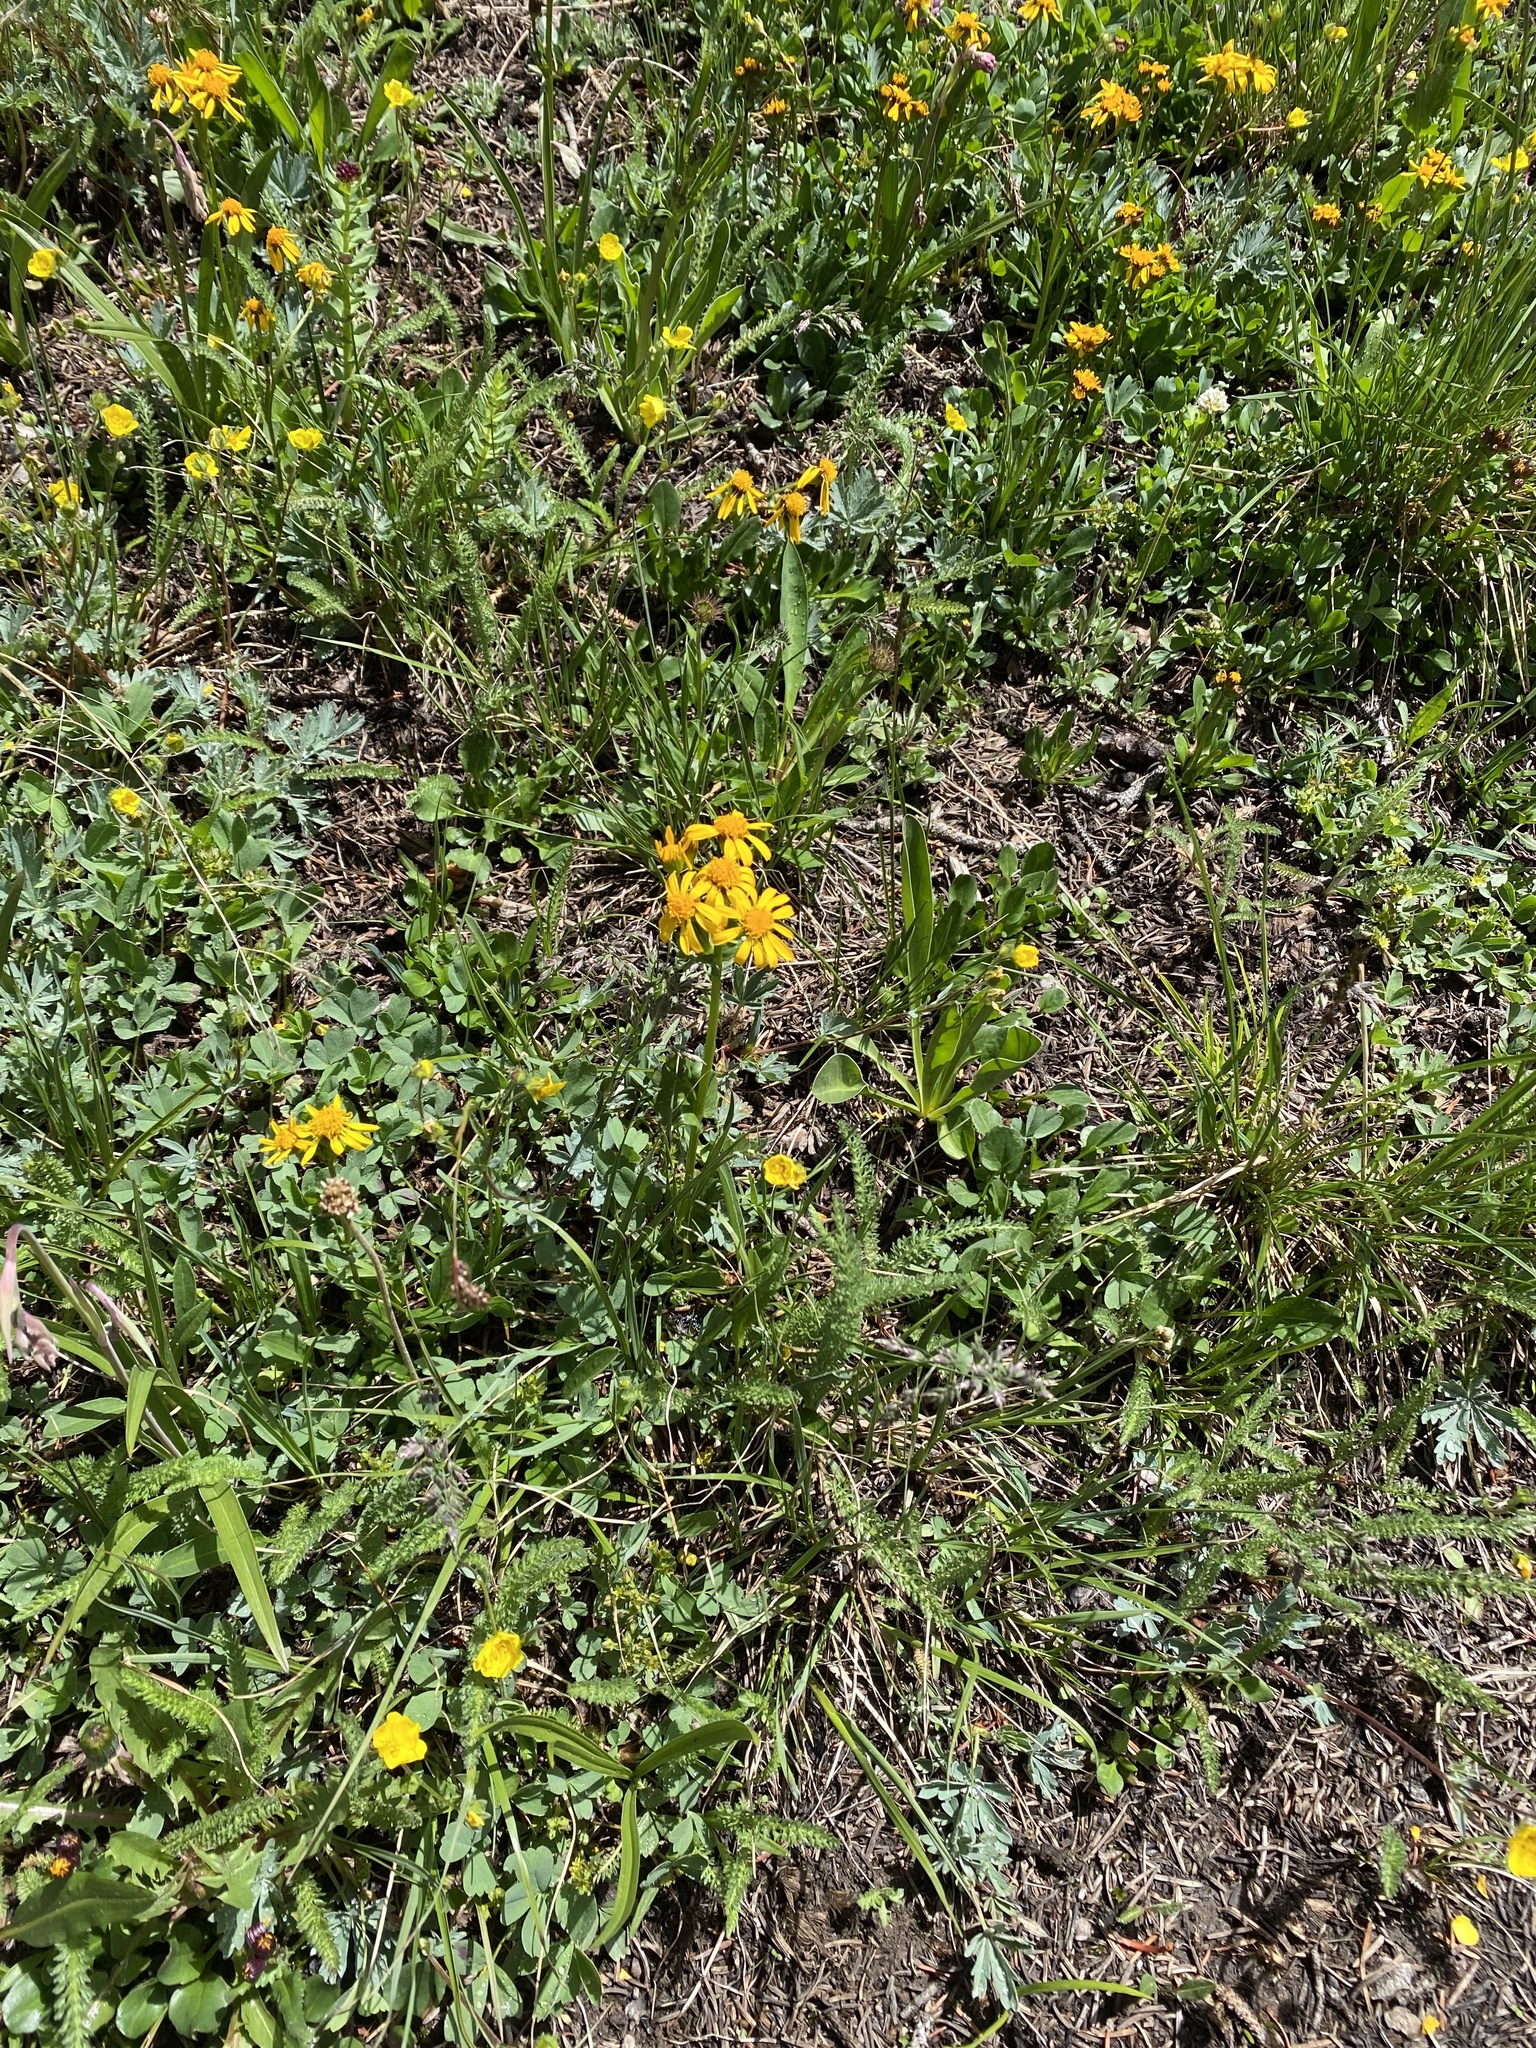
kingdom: Plantae
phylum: Tracheophyta
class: Magnoliopsida
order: Asterales
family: Asteraceae
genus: Packera
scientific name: Packera
